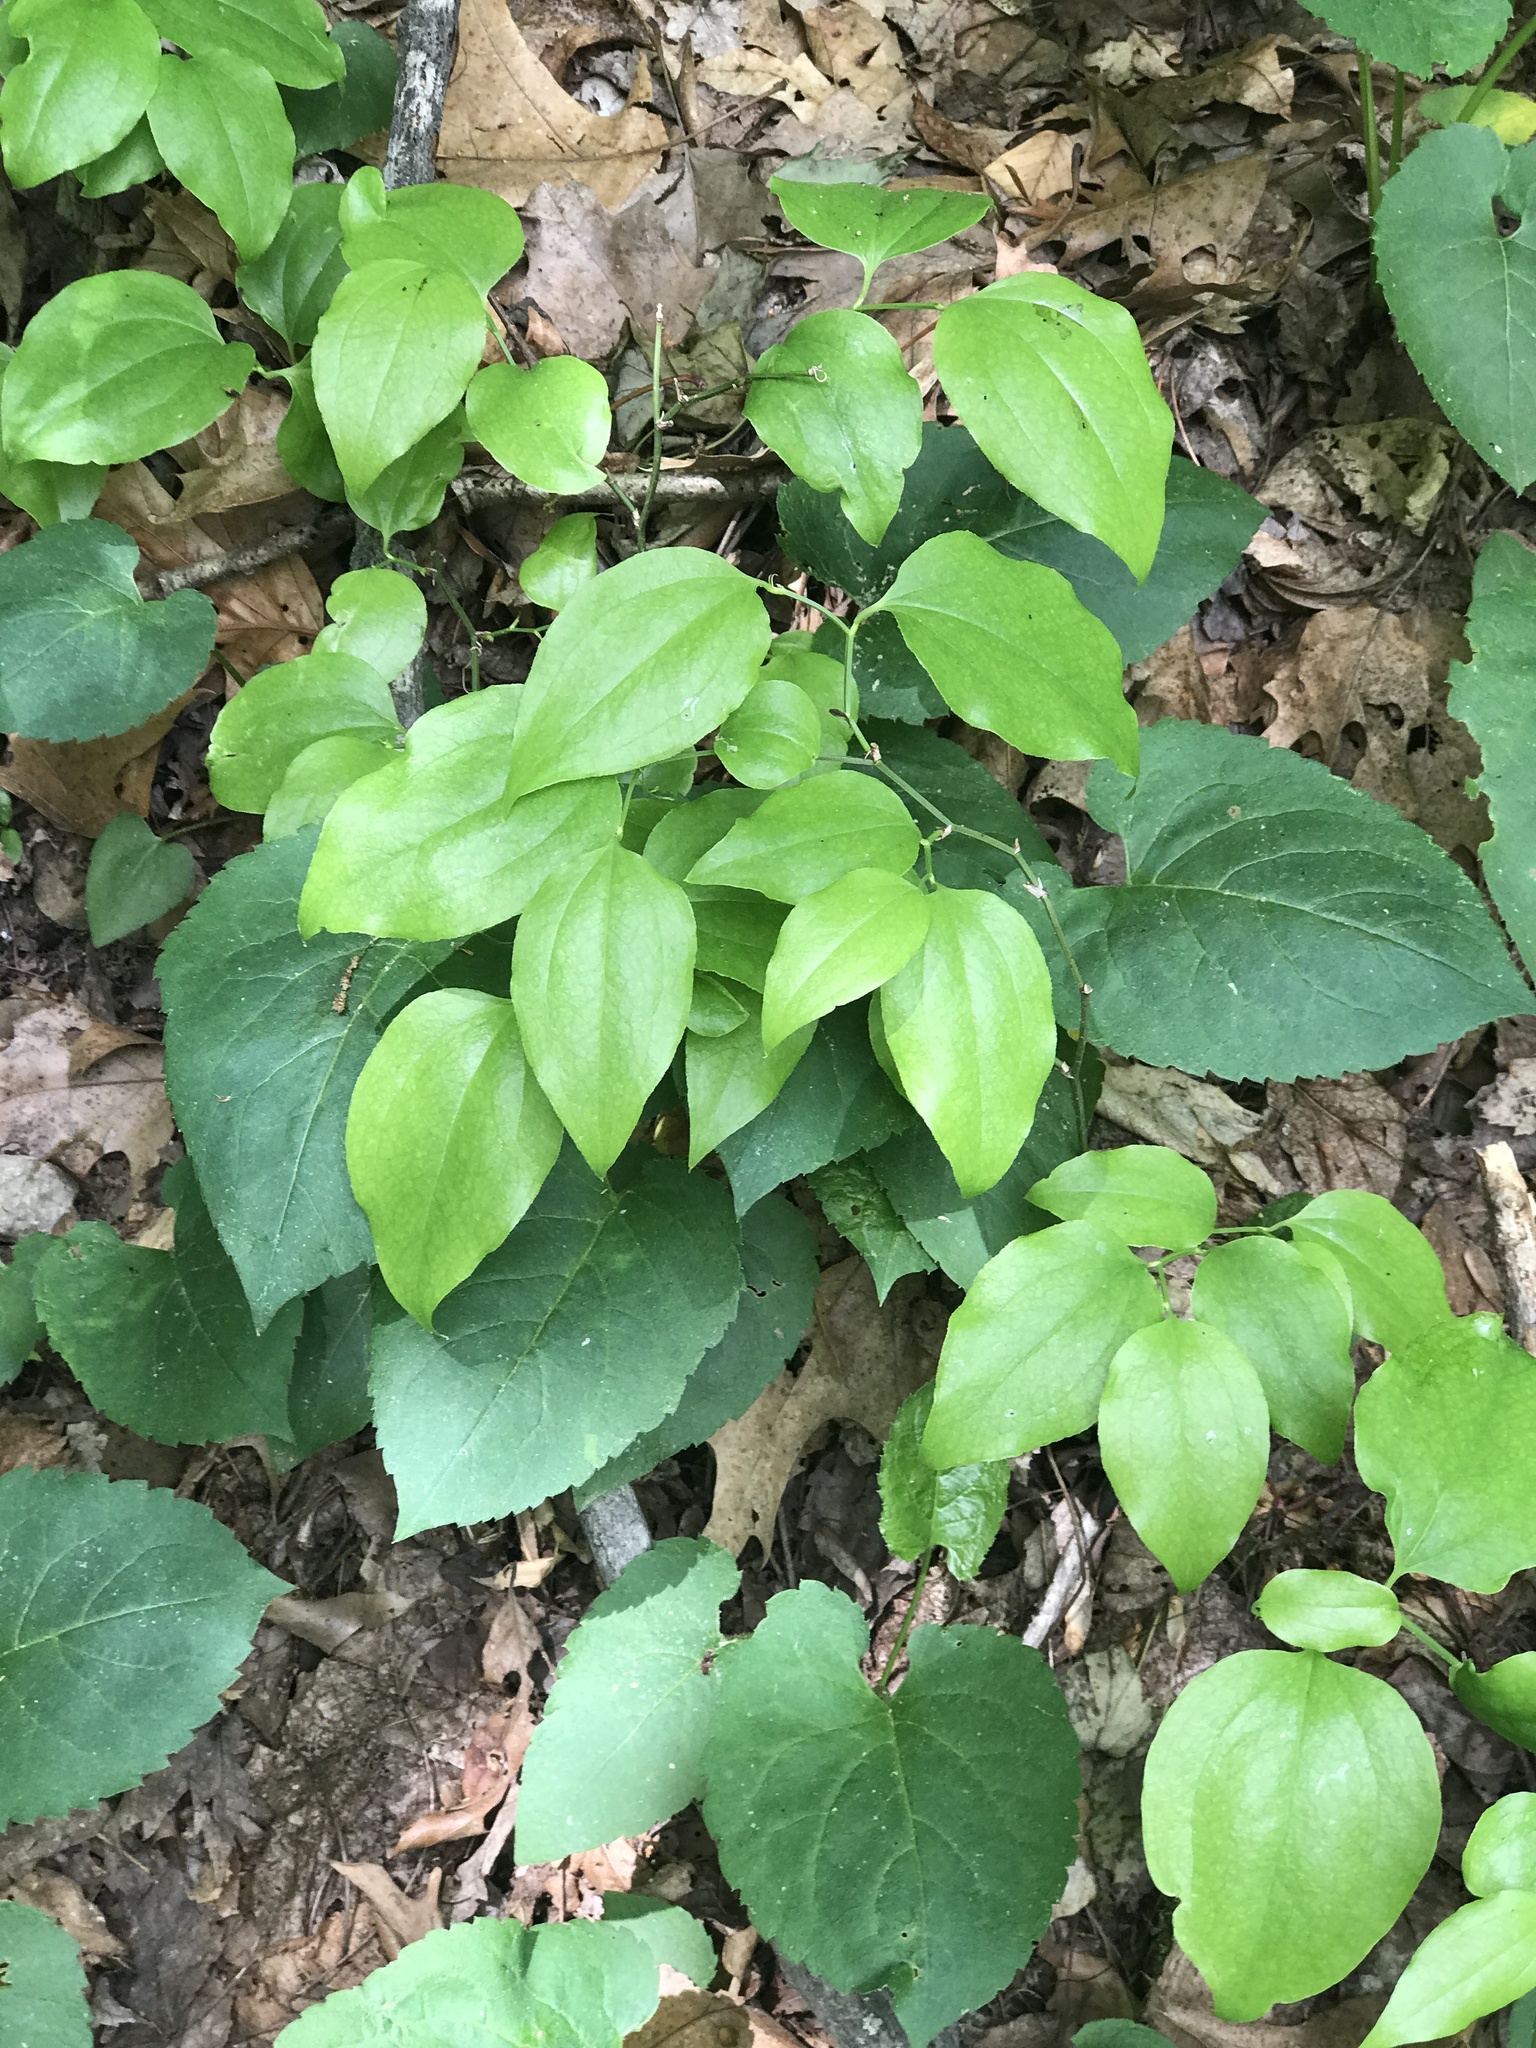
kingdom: Plantae
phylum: Tracheophyta
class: Liliopsida
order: Liliales
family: Smilacaceae
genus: Smilax
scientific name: Smilax rotundifolia
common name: Bullbriar
